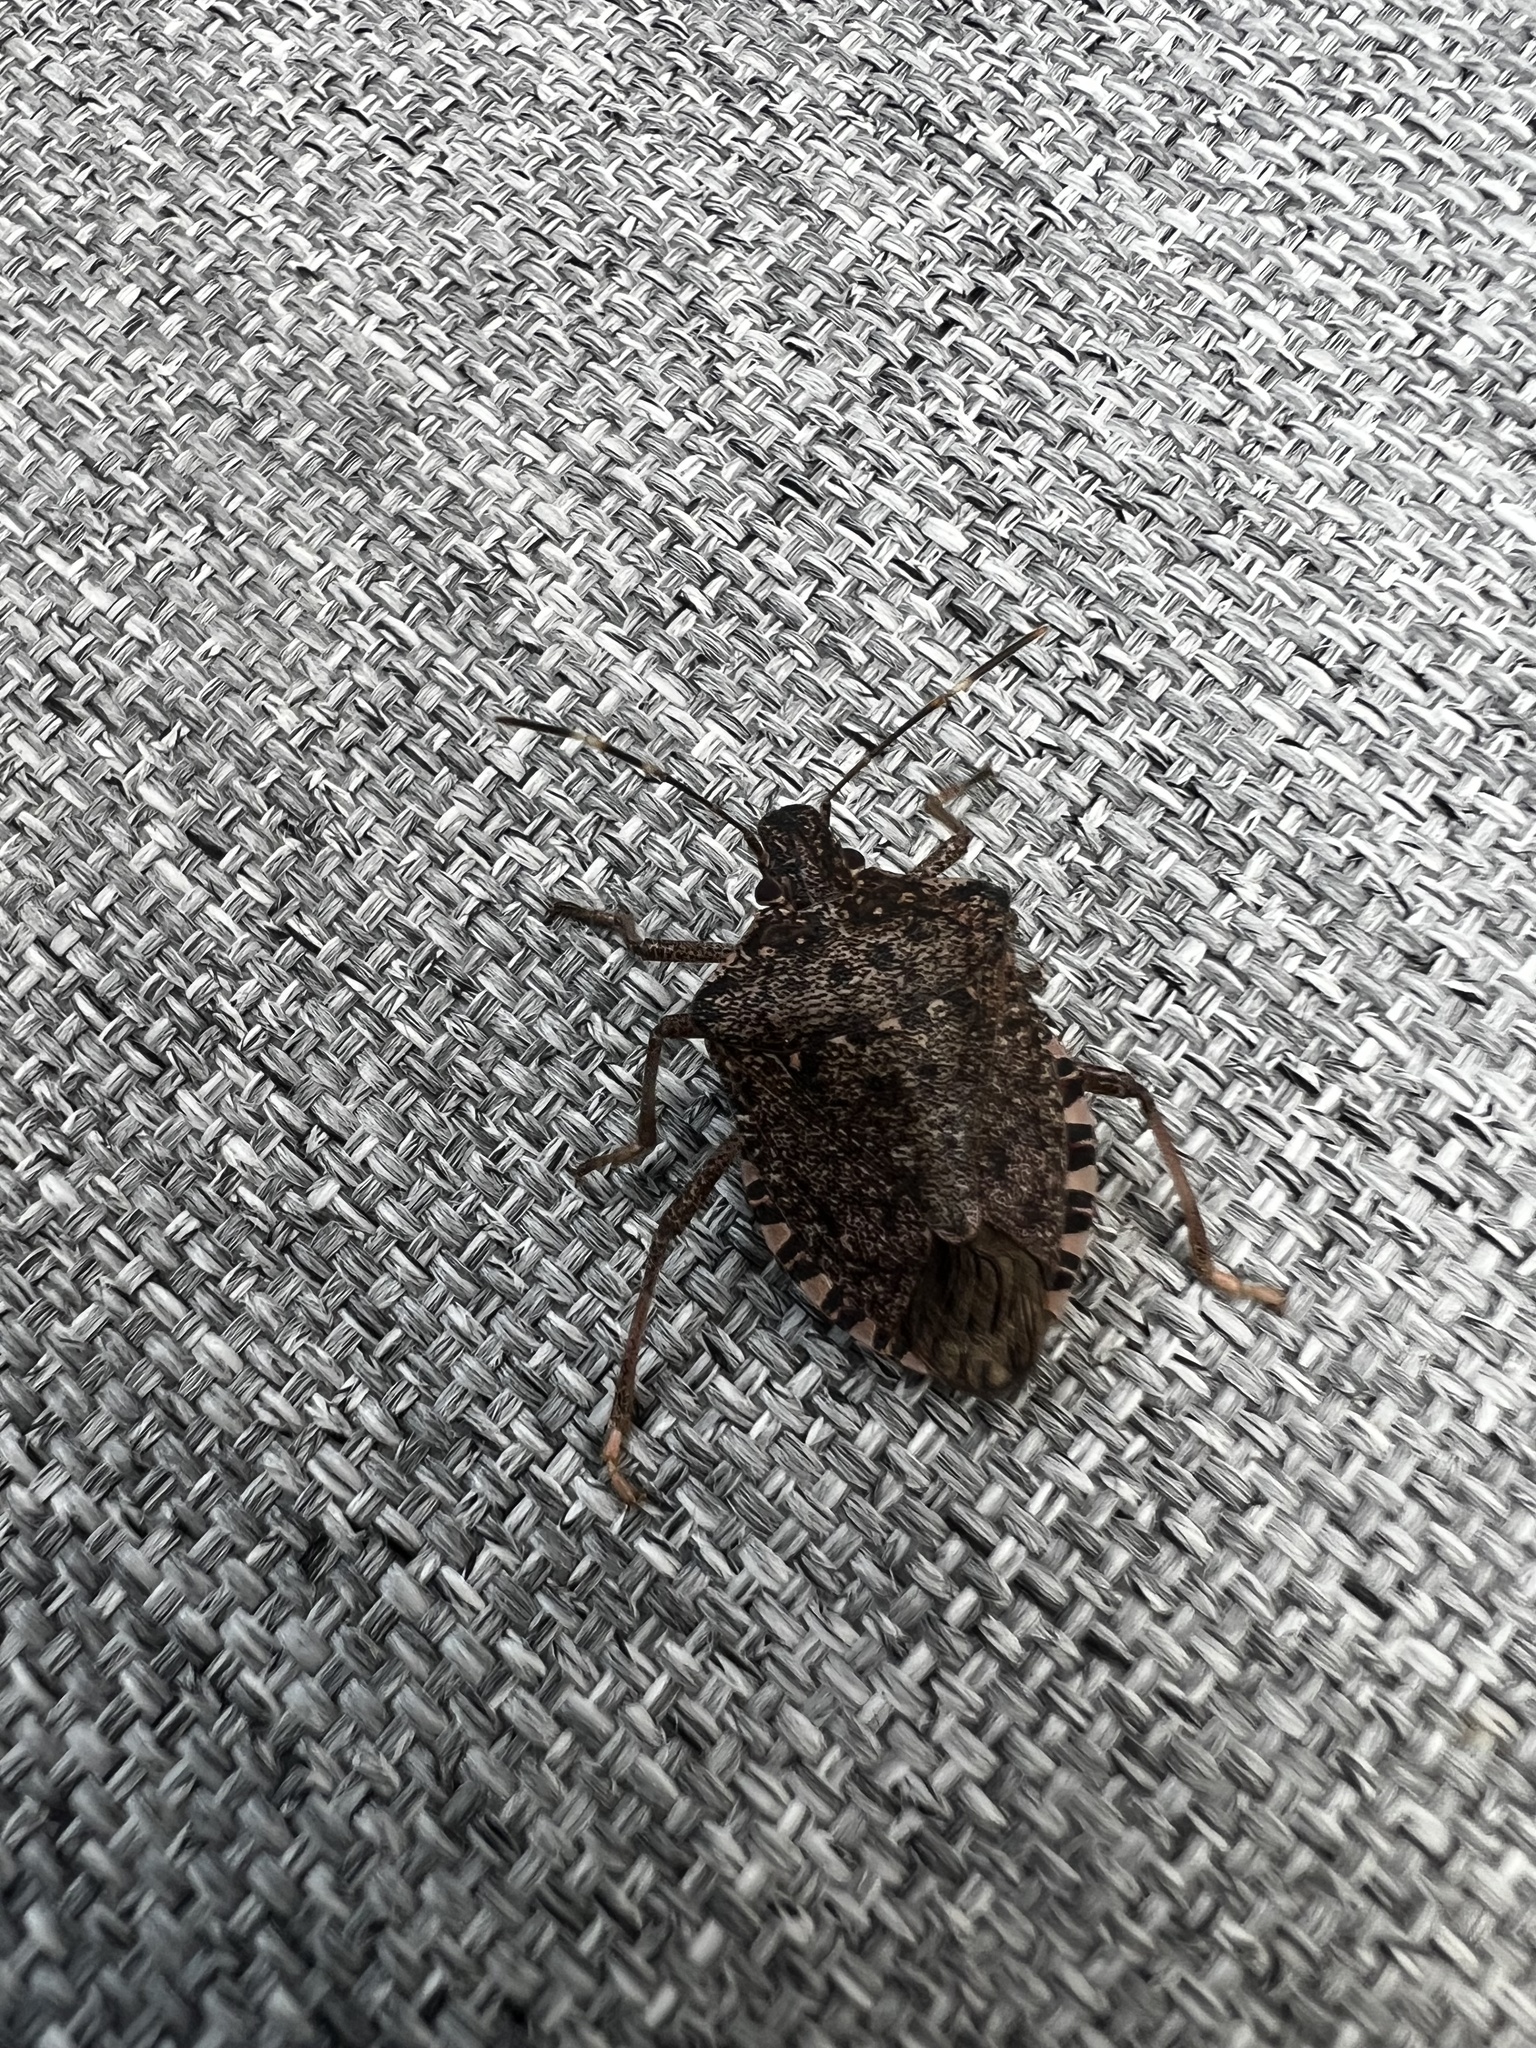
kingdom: Animalia
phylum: Arthropoda
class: Insecta
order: Hemiptera
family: Pentatomidae
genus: Halyomorpha
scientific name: Halyomorpha halys
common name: Brown marmorated stink bug
